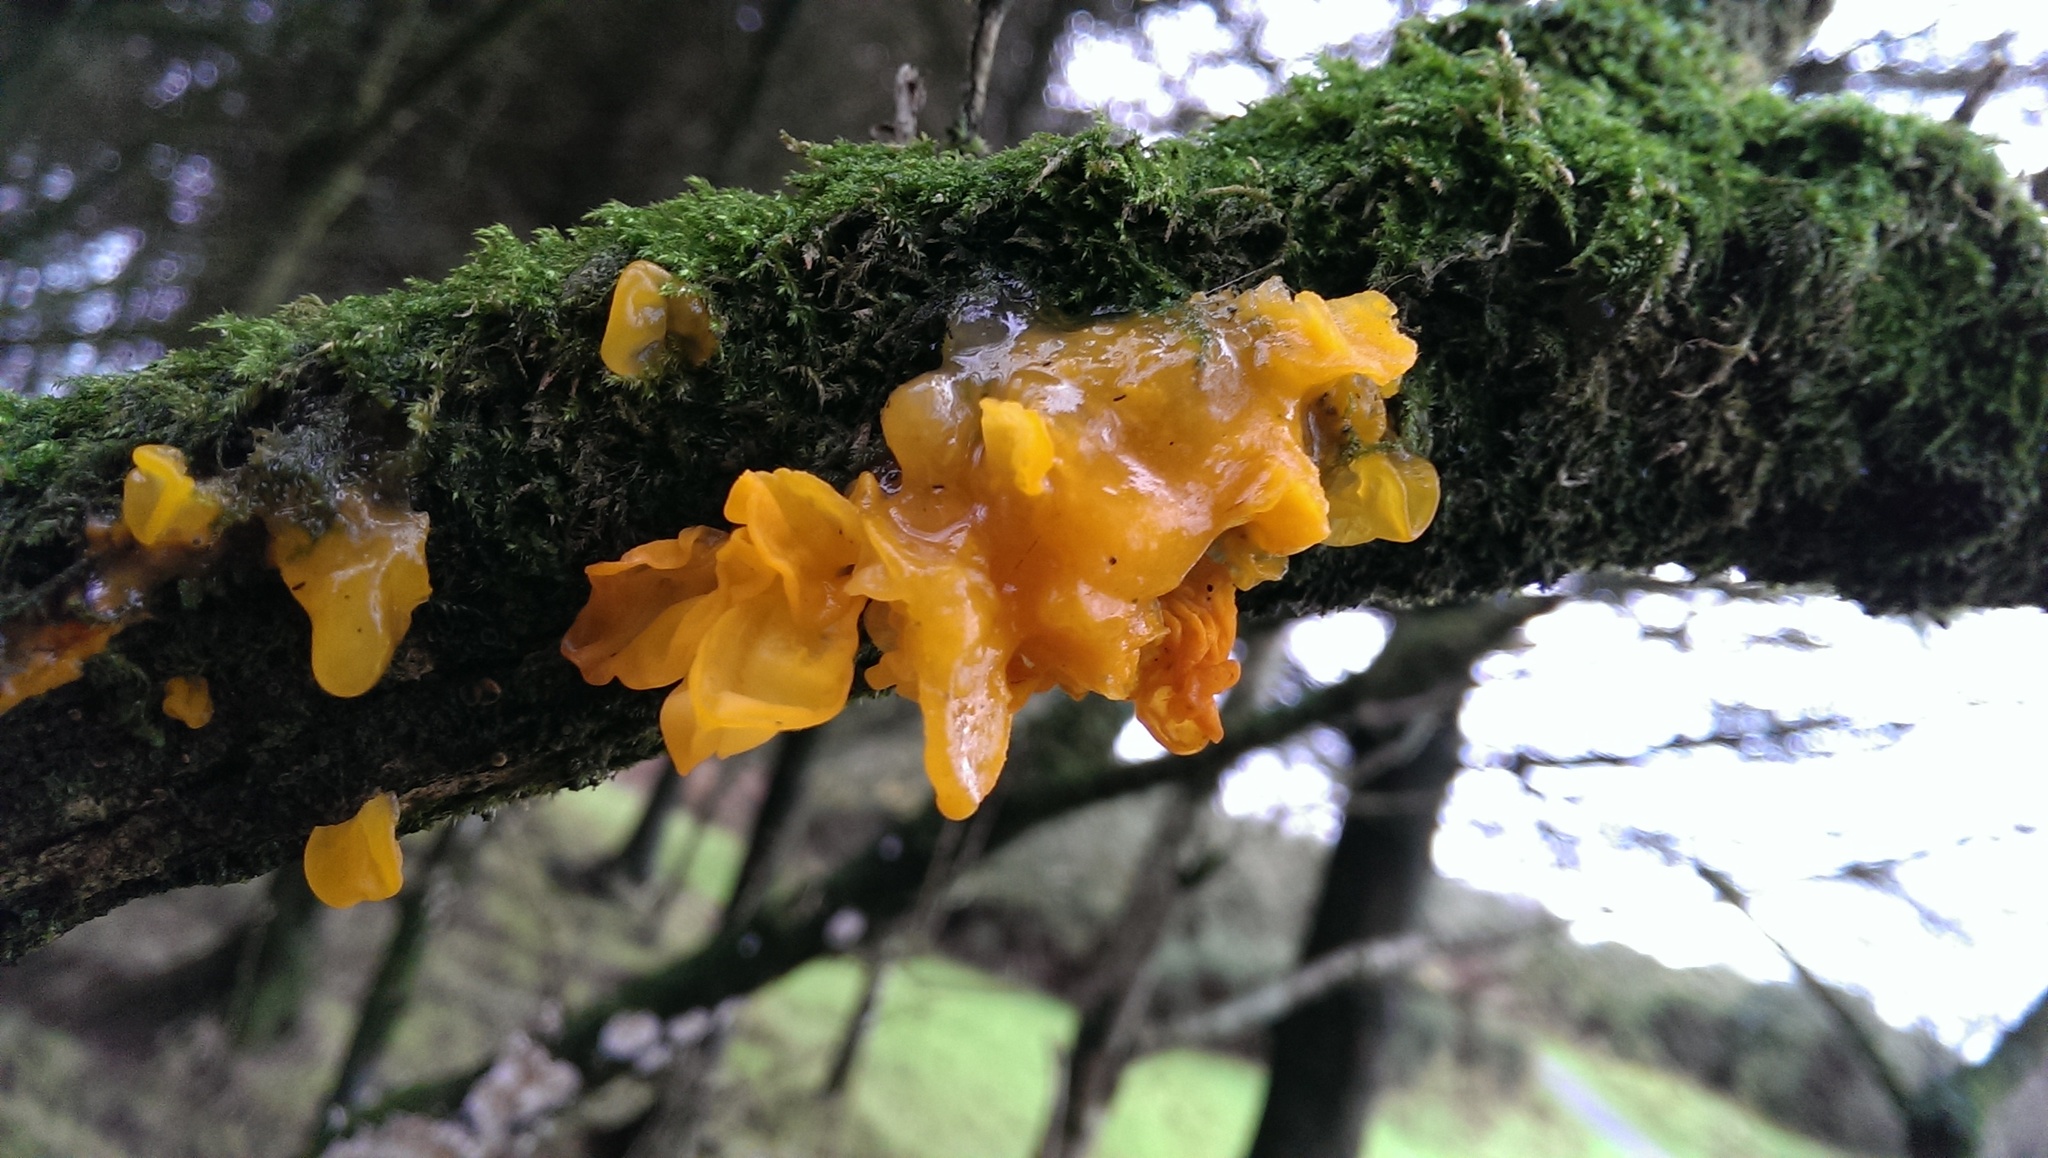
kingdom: Fungi
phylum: Basidiomycota
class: Tremellomycetes
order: Tremellales
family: Tremellaceae
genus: Tremella
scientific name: Tremella mesenterica
